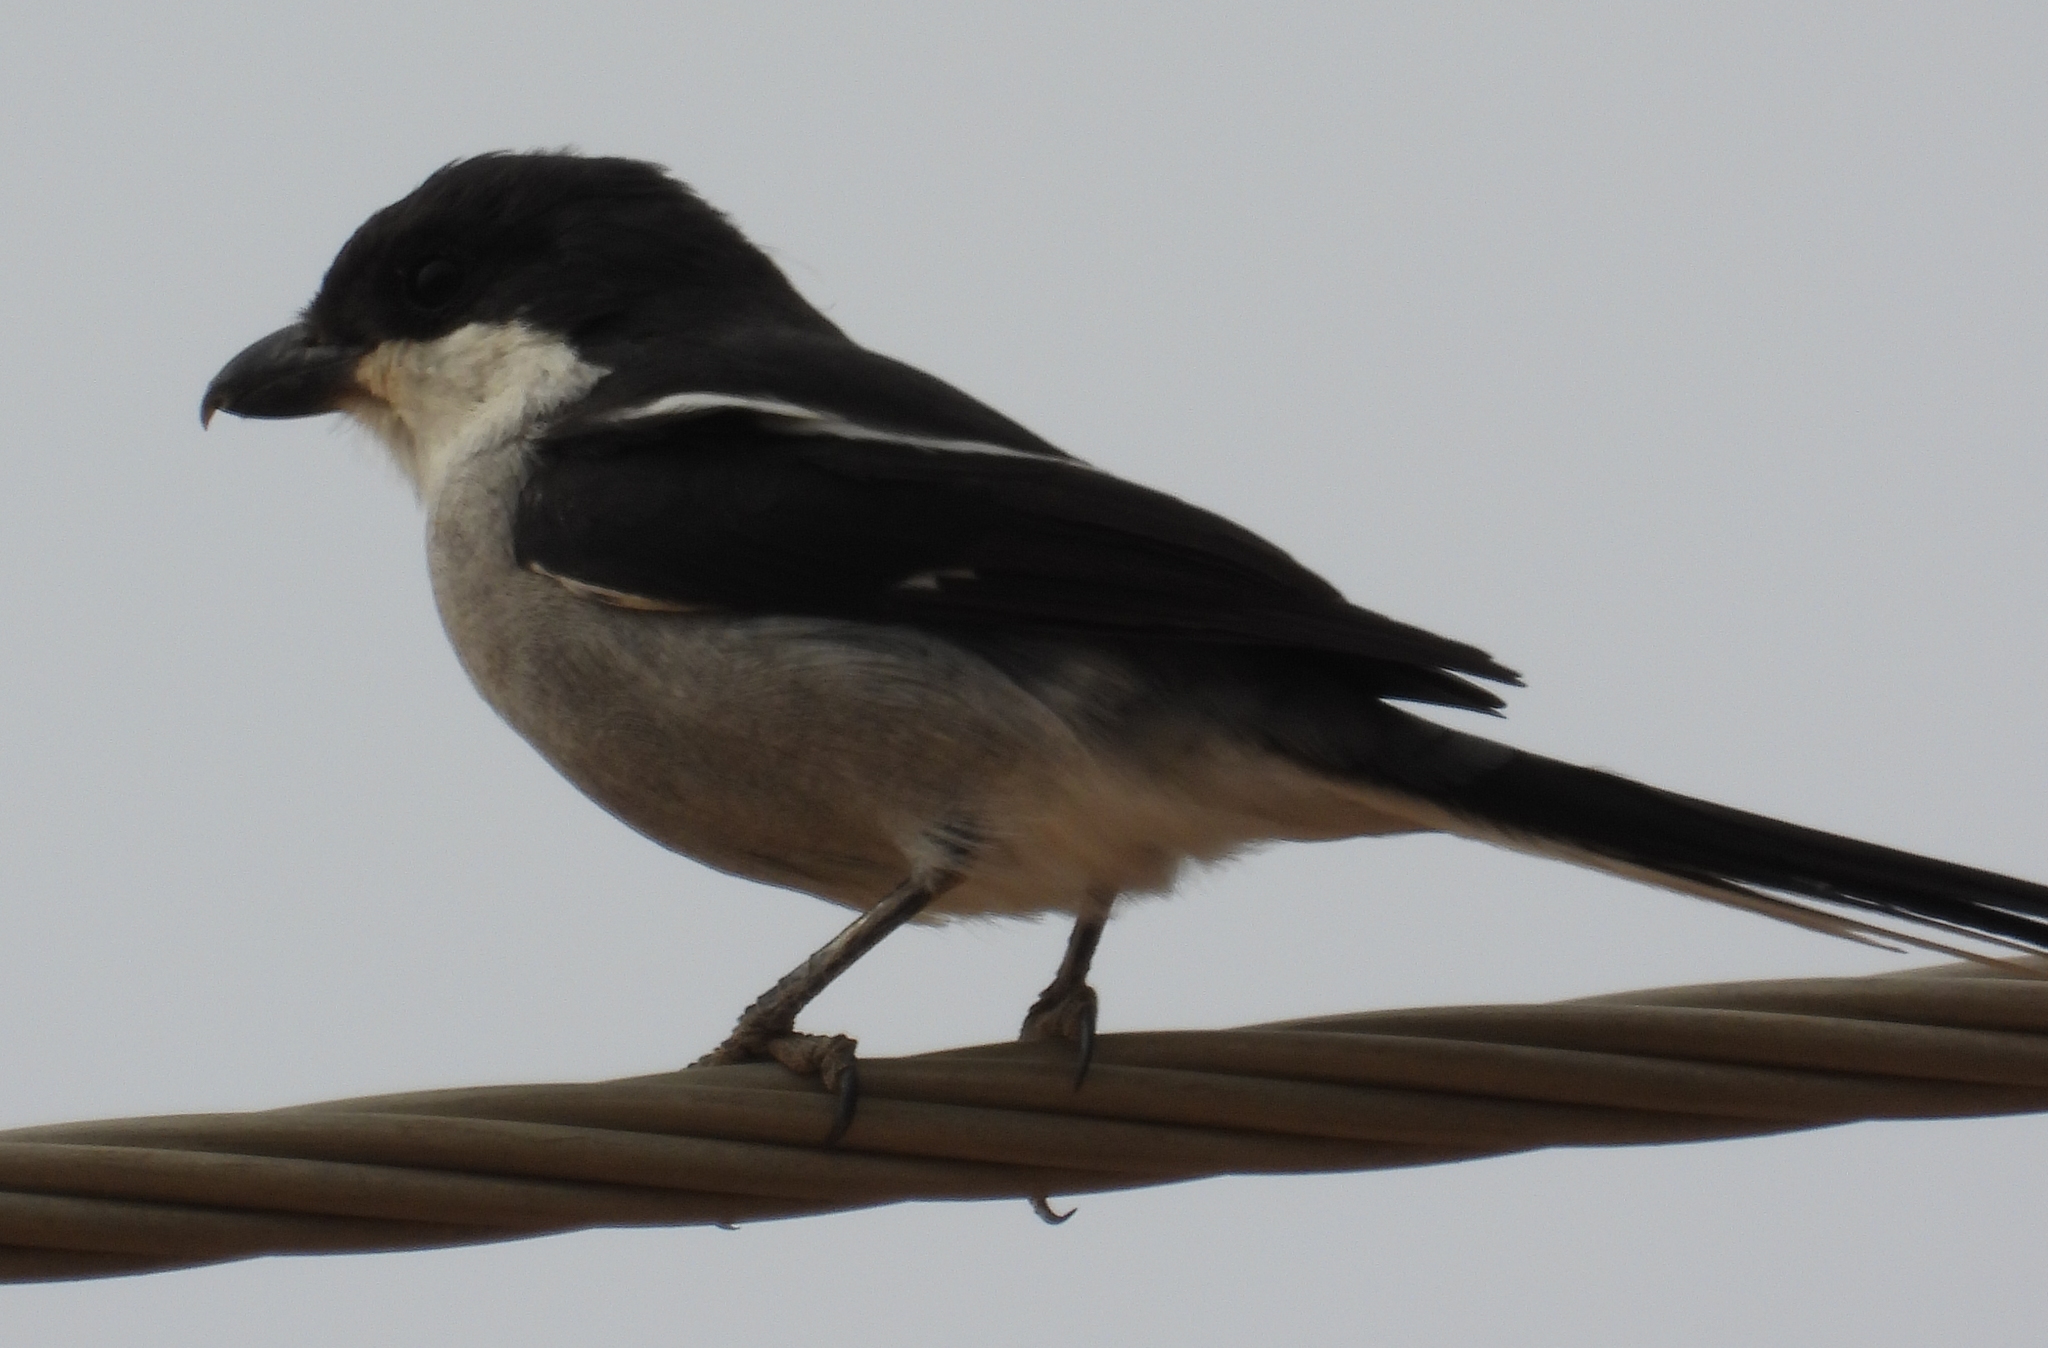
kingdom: Animalia
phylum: Chordata
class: Aves
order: Passeriformes
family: Laniidae
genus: Lanius
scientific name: Lanius collaris
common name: Southern fiscal
